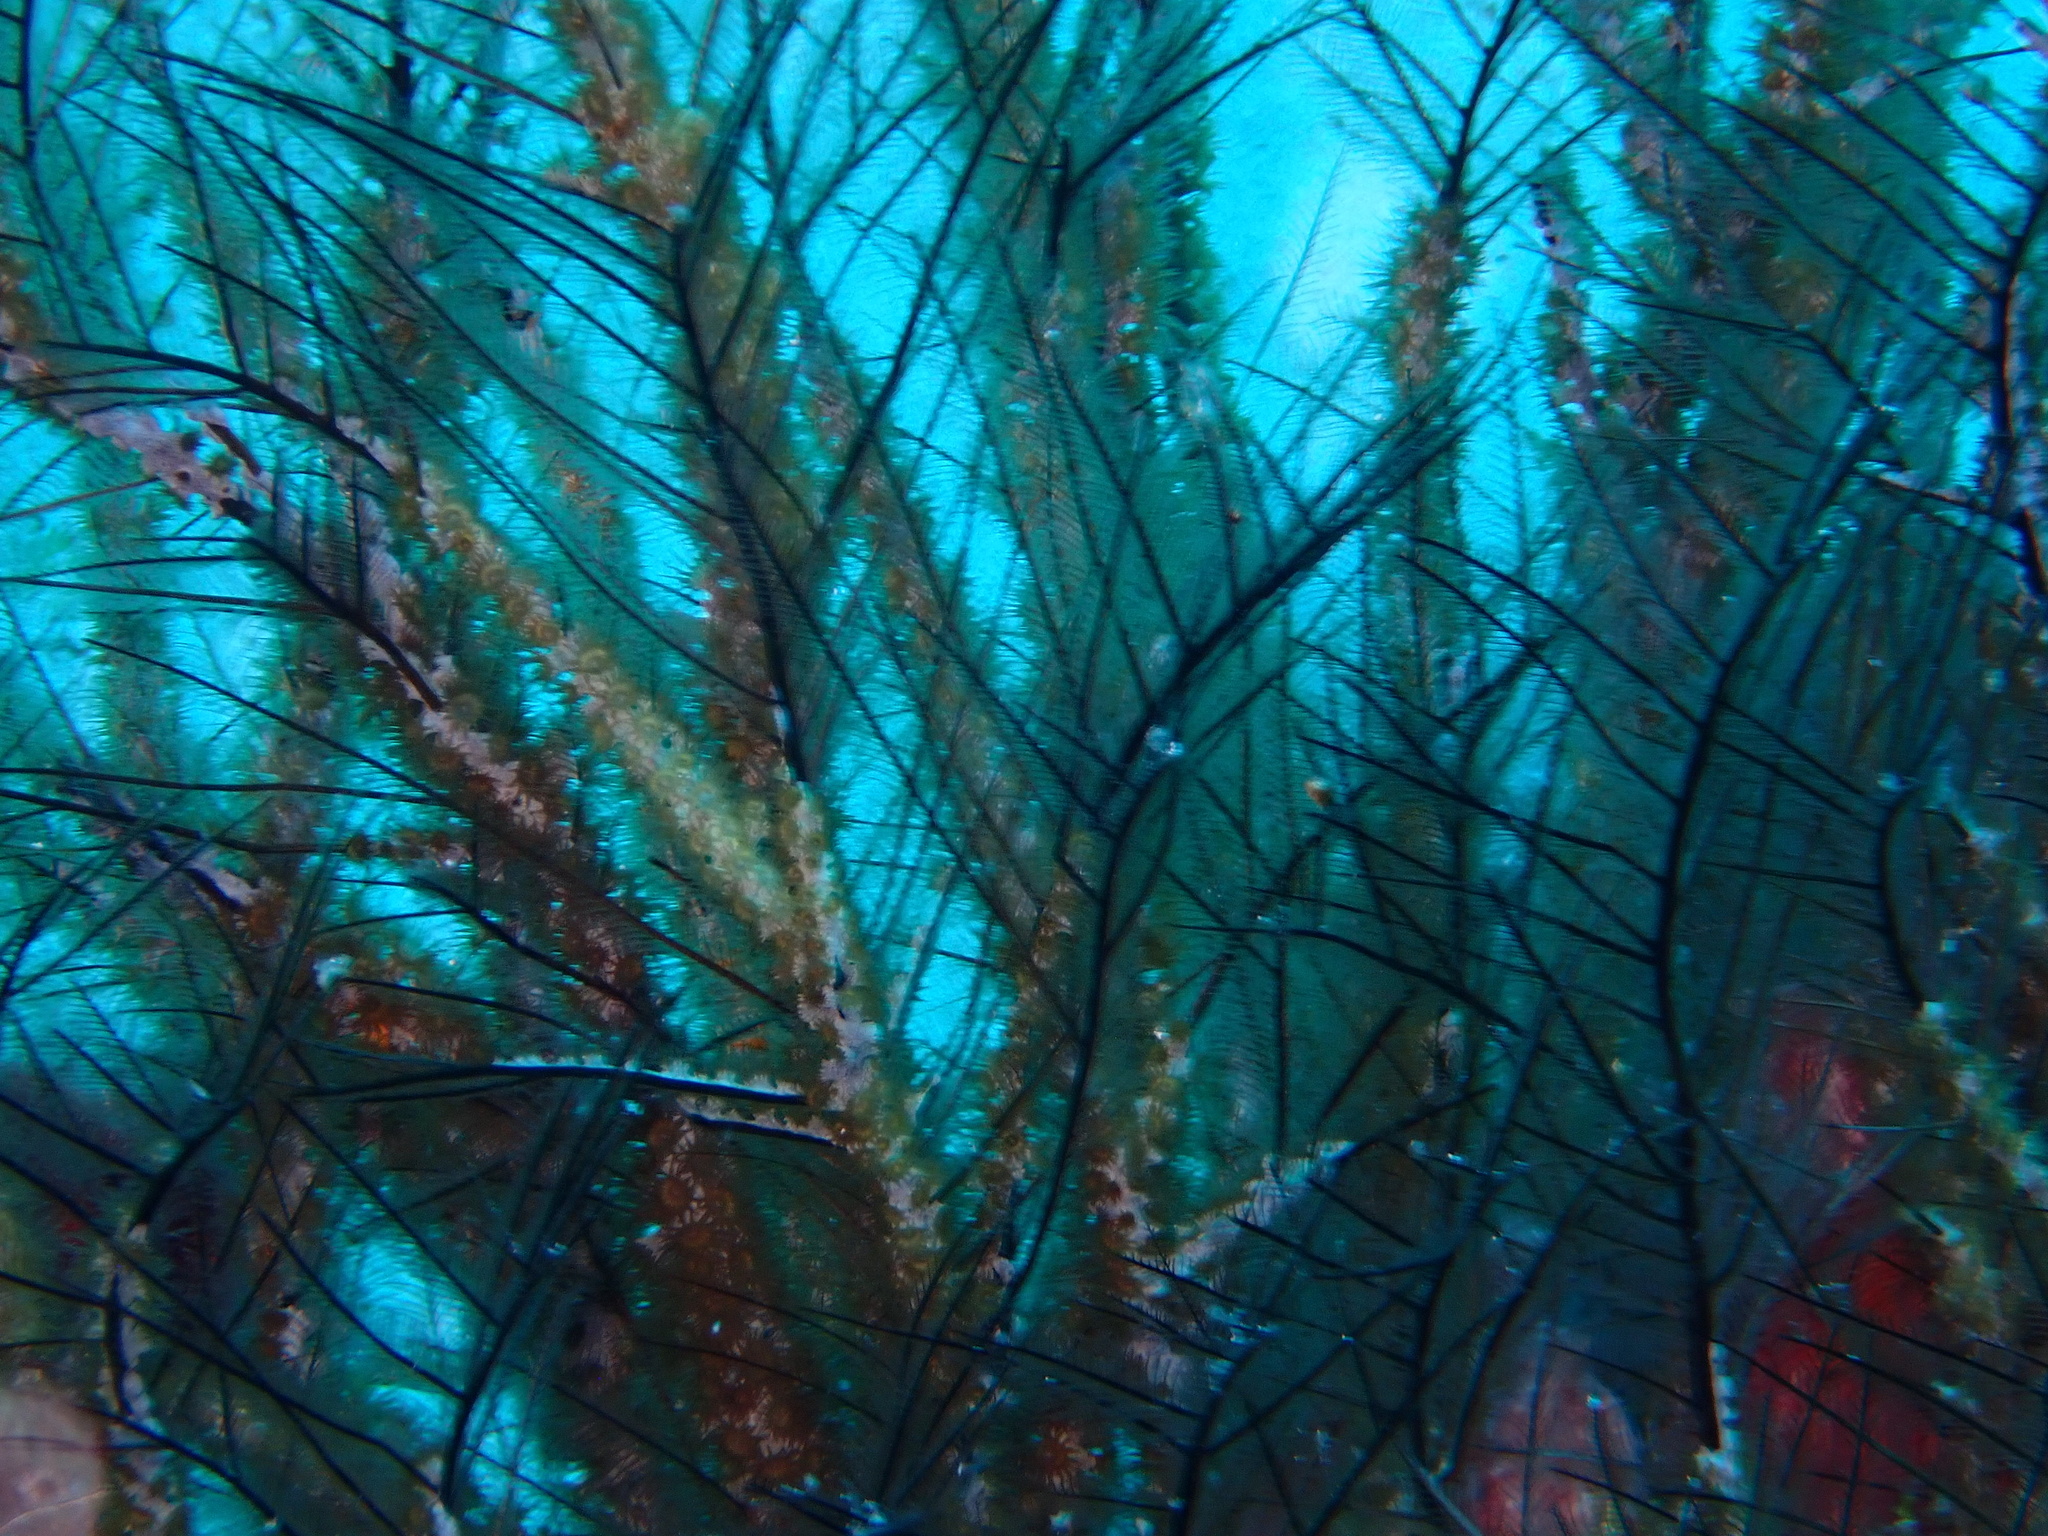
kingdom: Animalia
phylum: Cnidaria
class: Anthozoa
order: Zoantharia
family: Hydrozoanthidae
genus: Hydrozoanthus
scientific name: Hydrozoanthus antumbrosus
